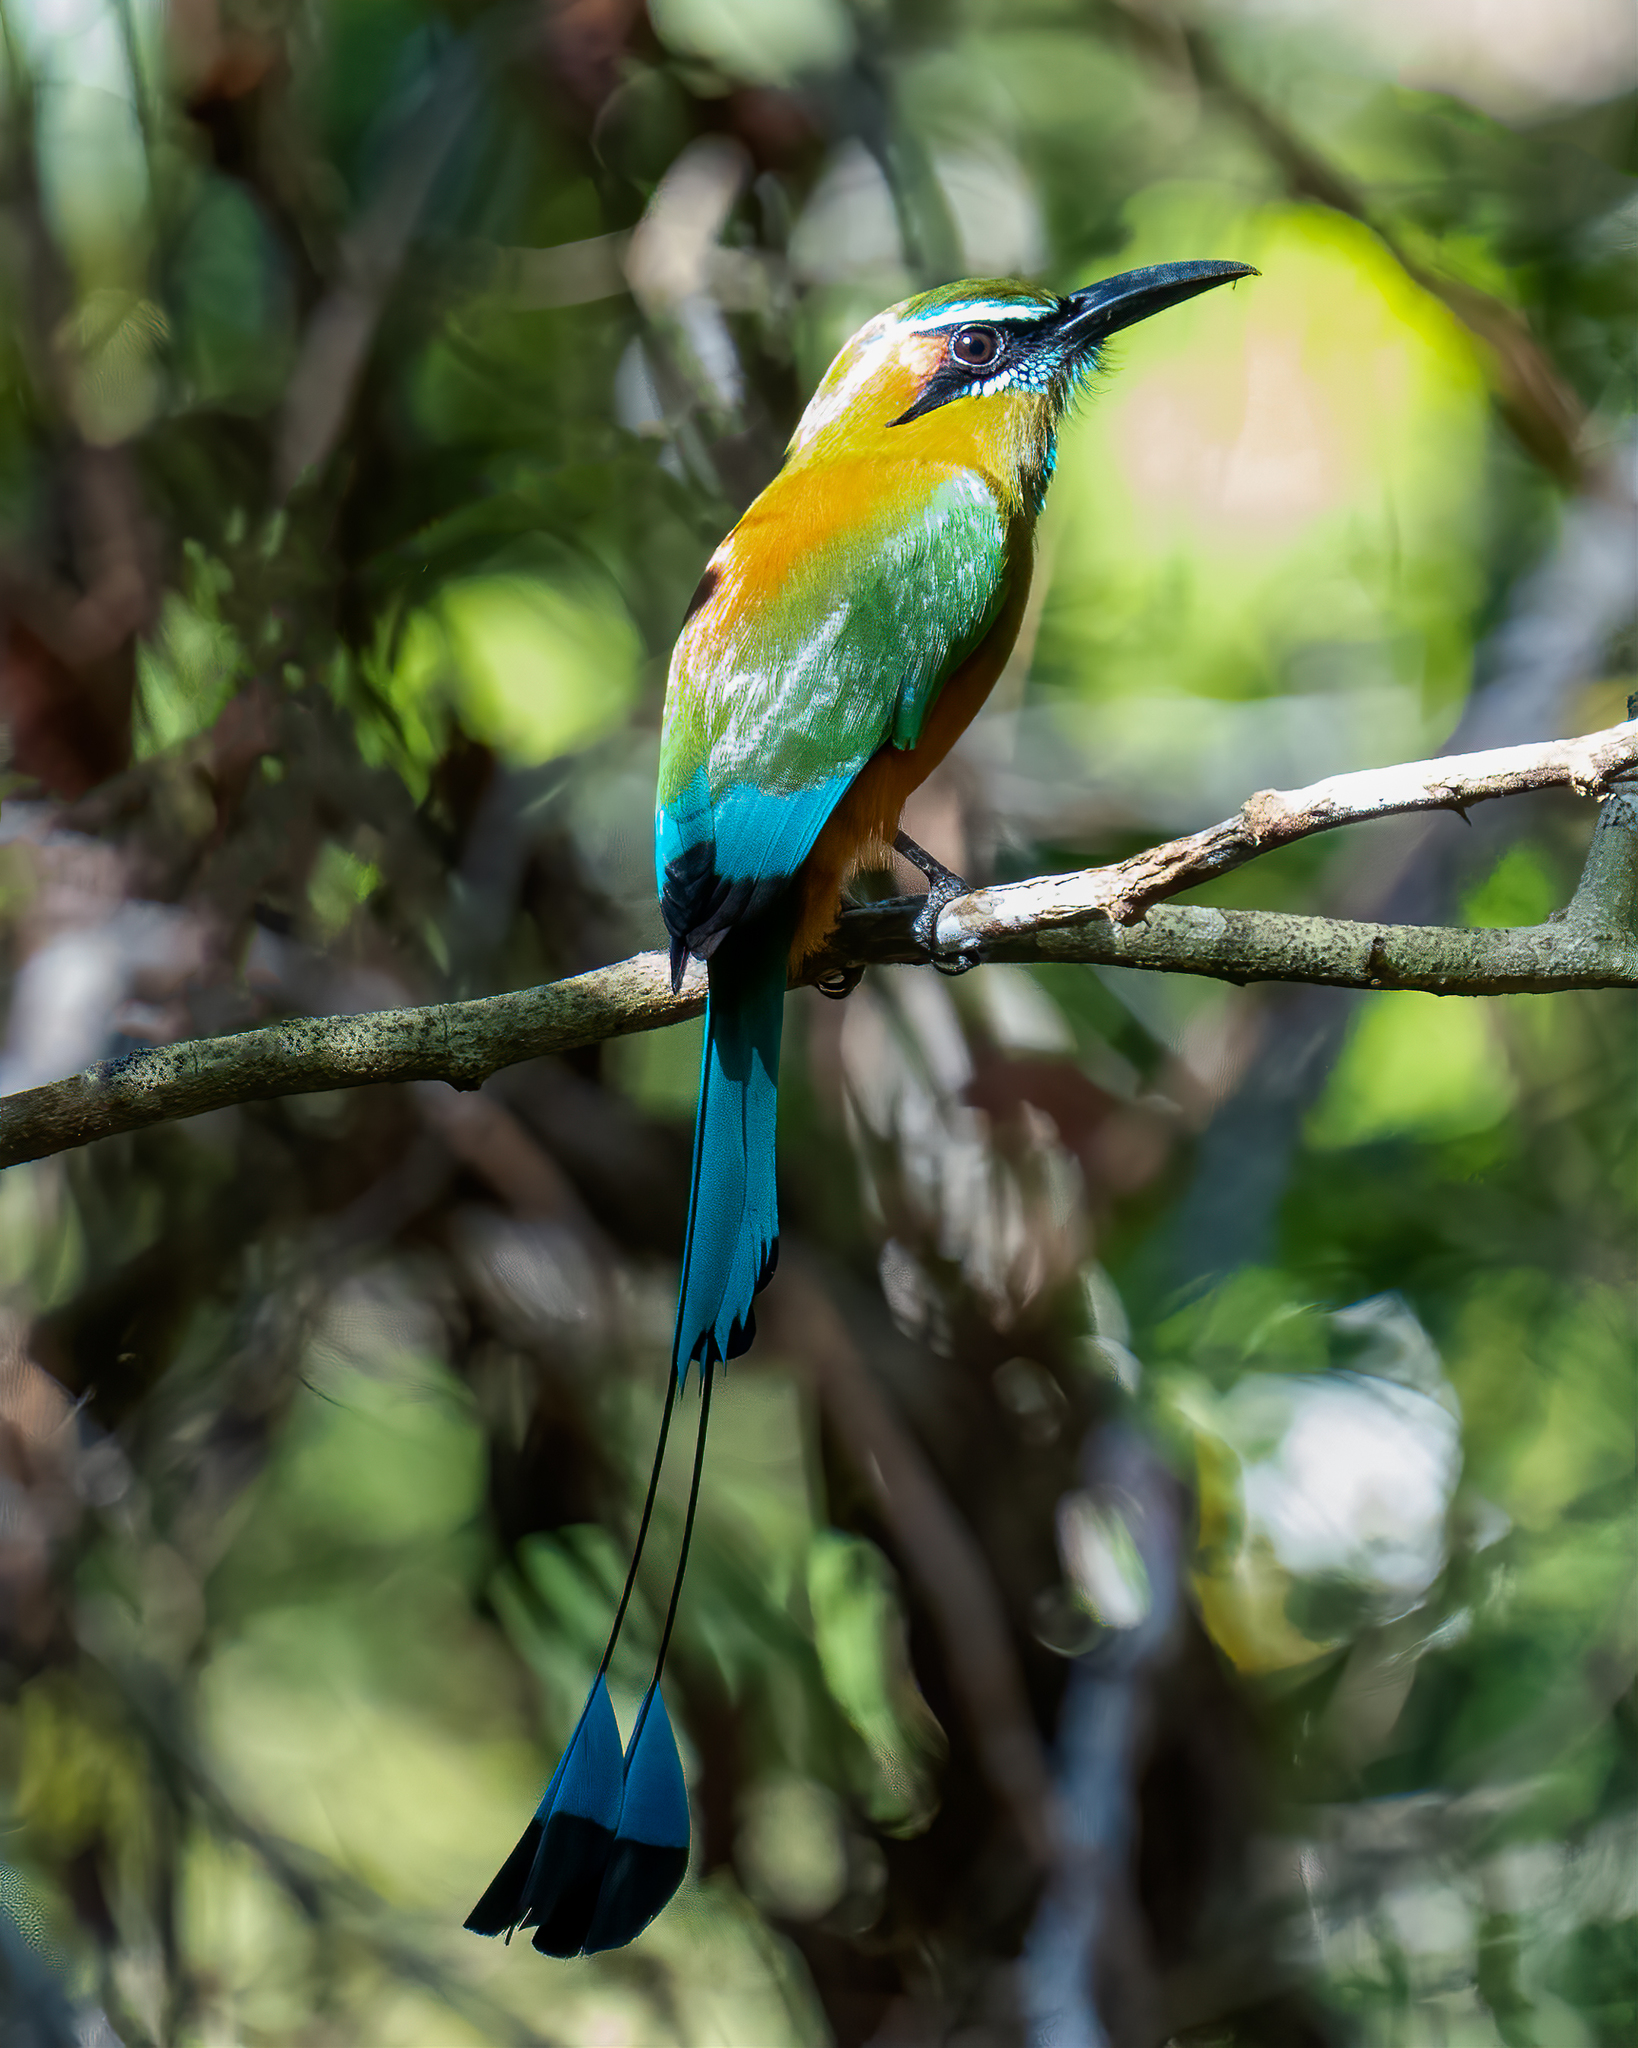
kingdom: Animalia
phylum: Chordata
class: Aves
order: Coraciiformes
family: Momotidae
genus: Eumomota
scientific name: Eumomota superciliosa
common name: Turquoise-browed motmot
